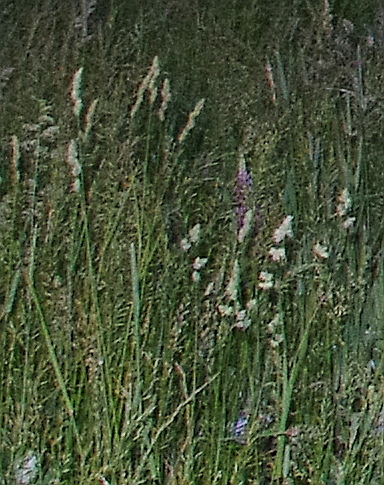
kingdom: Plantae
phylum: Tracheophyta
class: Liliopsida
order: Poales
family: Poaceae
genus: Dactylis
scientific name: Dactylis glomerata
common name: Orchardgrass
